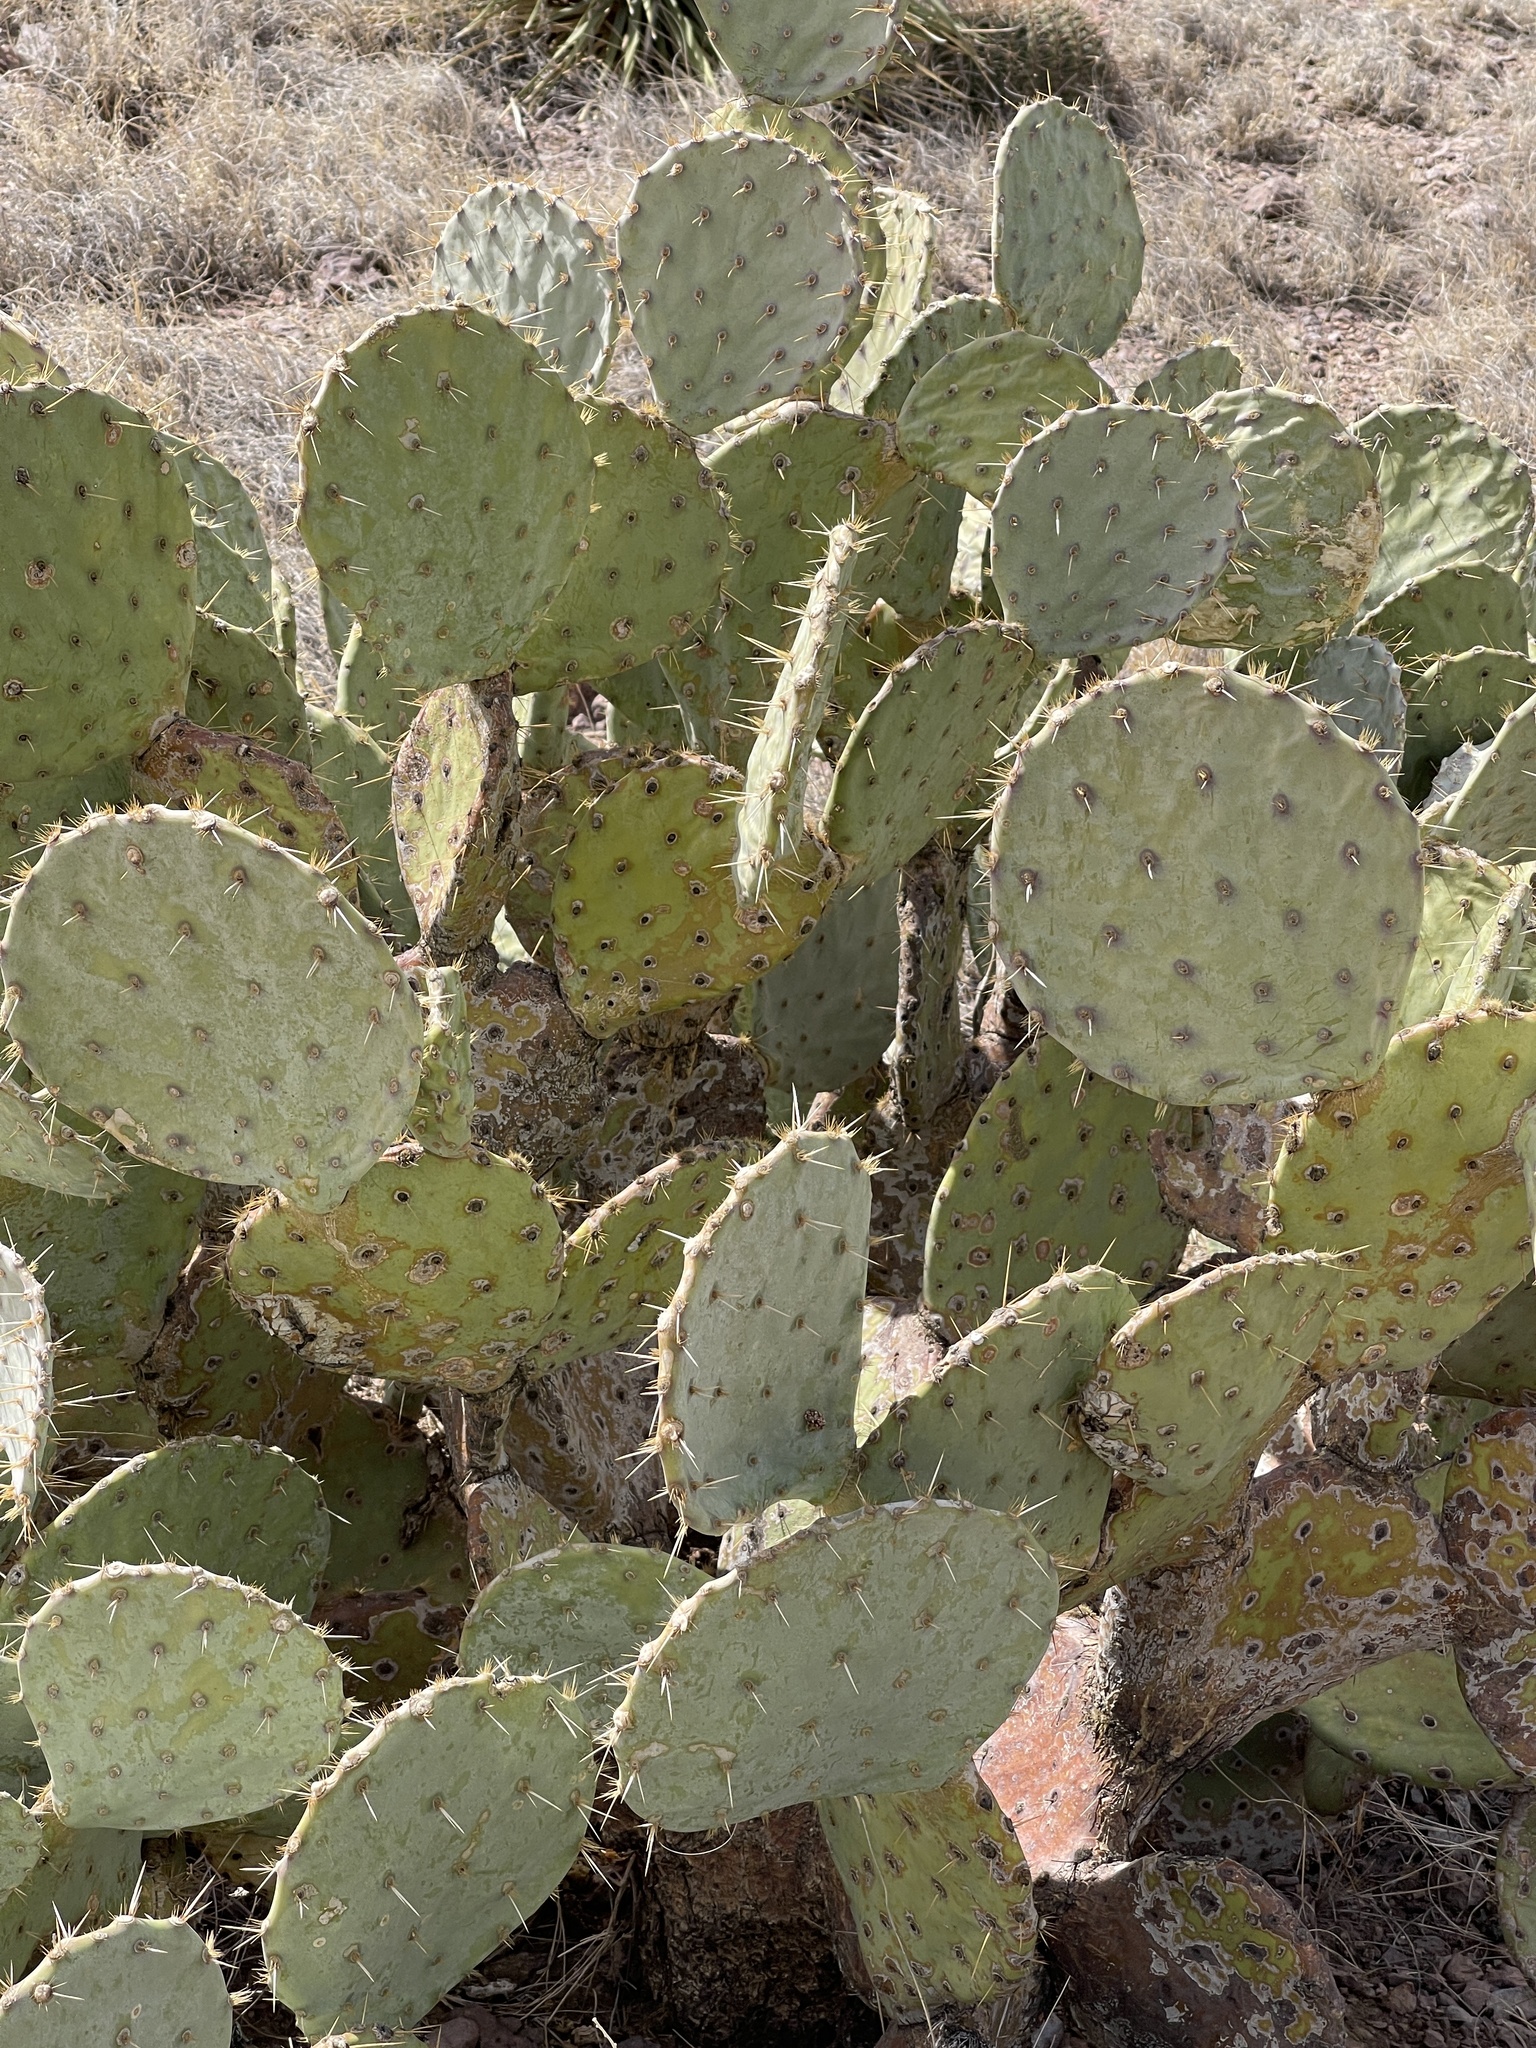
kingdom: Plantae
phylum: Tracheophyta
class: Magnoliopsida
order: Caryophyllales
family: Cactaceae
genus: Opuntia
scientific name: Opuntia engelmannii
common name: Cactus-apple
